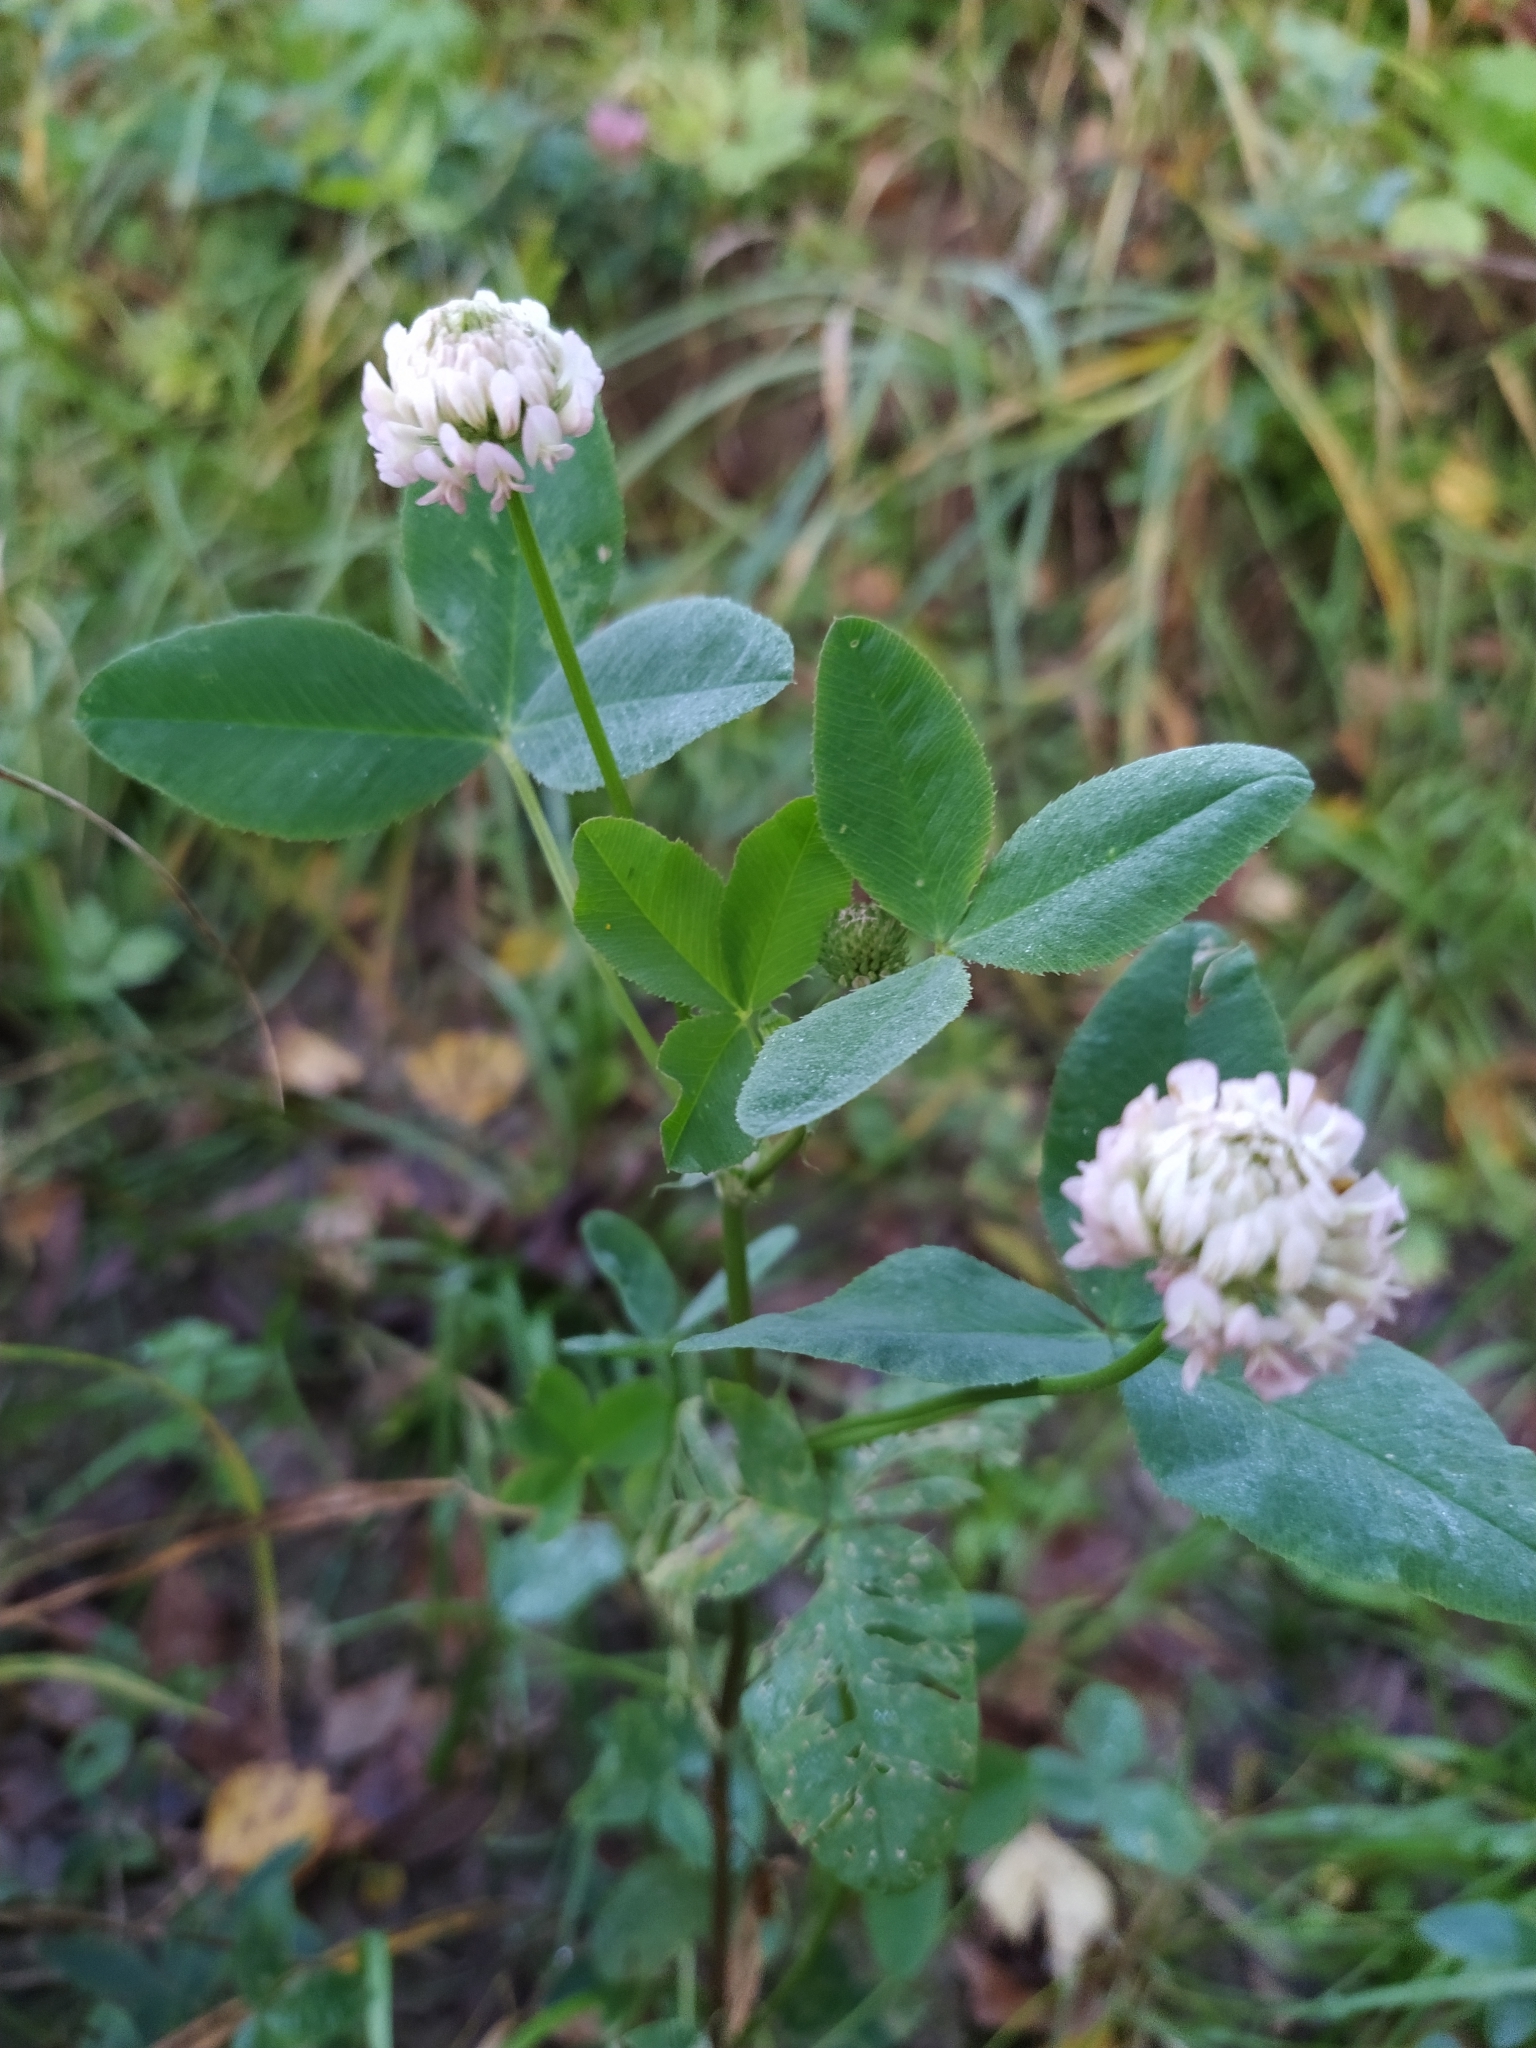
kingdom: Plantae
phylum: Tracheophyta
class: Magnoliopsida
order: Fabales
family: Fabaceae
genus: Trifolium
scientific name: Trifolium hybridum
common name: Alsike clover
